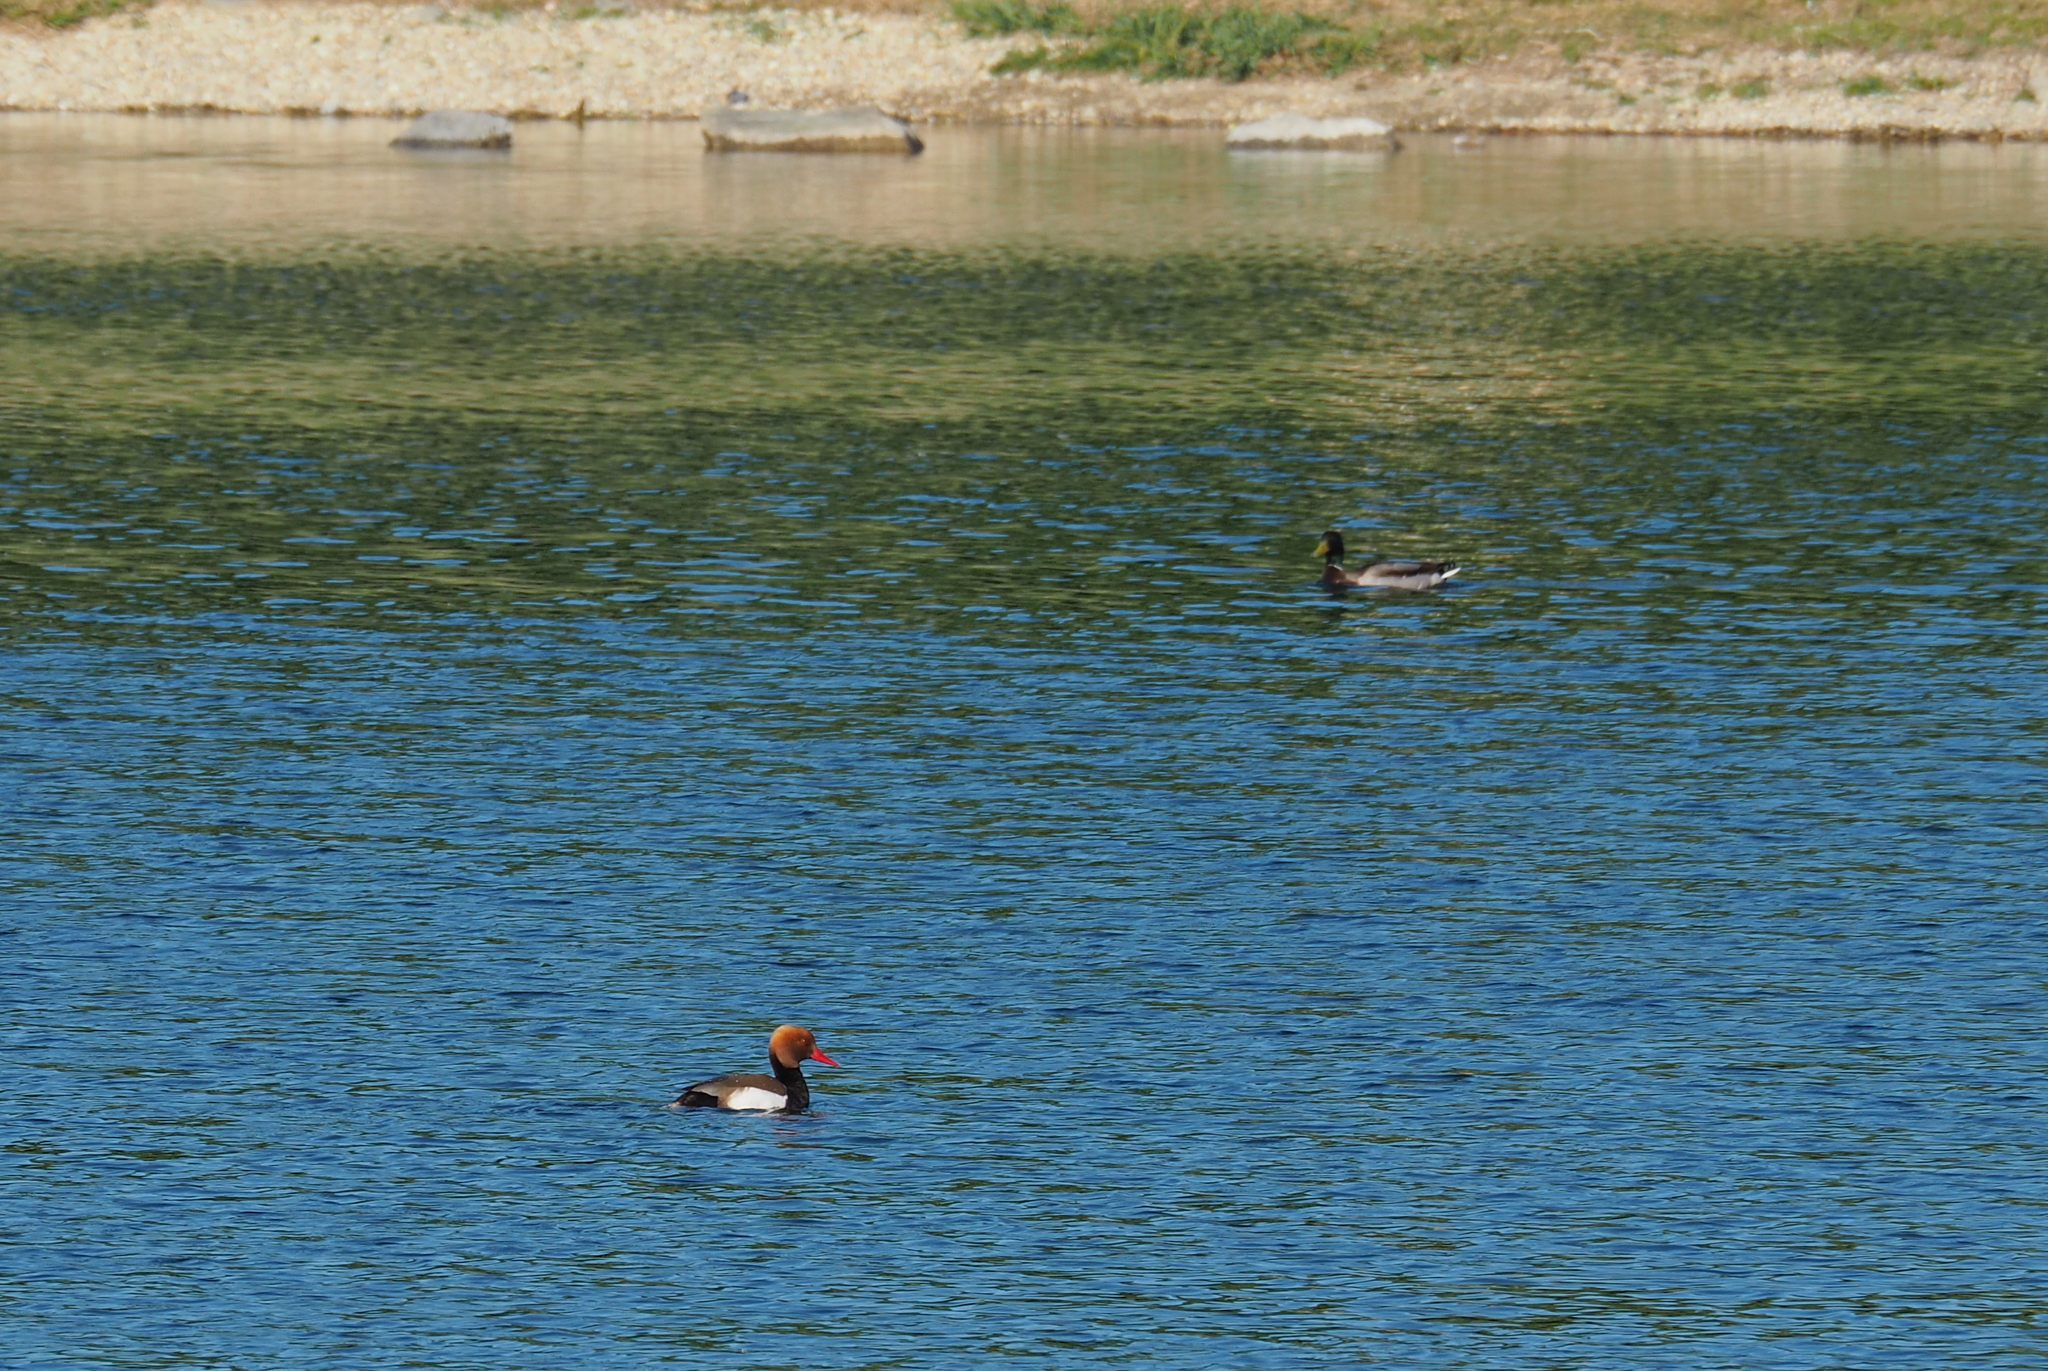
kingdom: Animalia
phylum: Chordata
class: Aves
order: Anseriformes
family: Anatidae
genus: Netta
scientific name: Netta rufina
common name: Red-crested pochard
